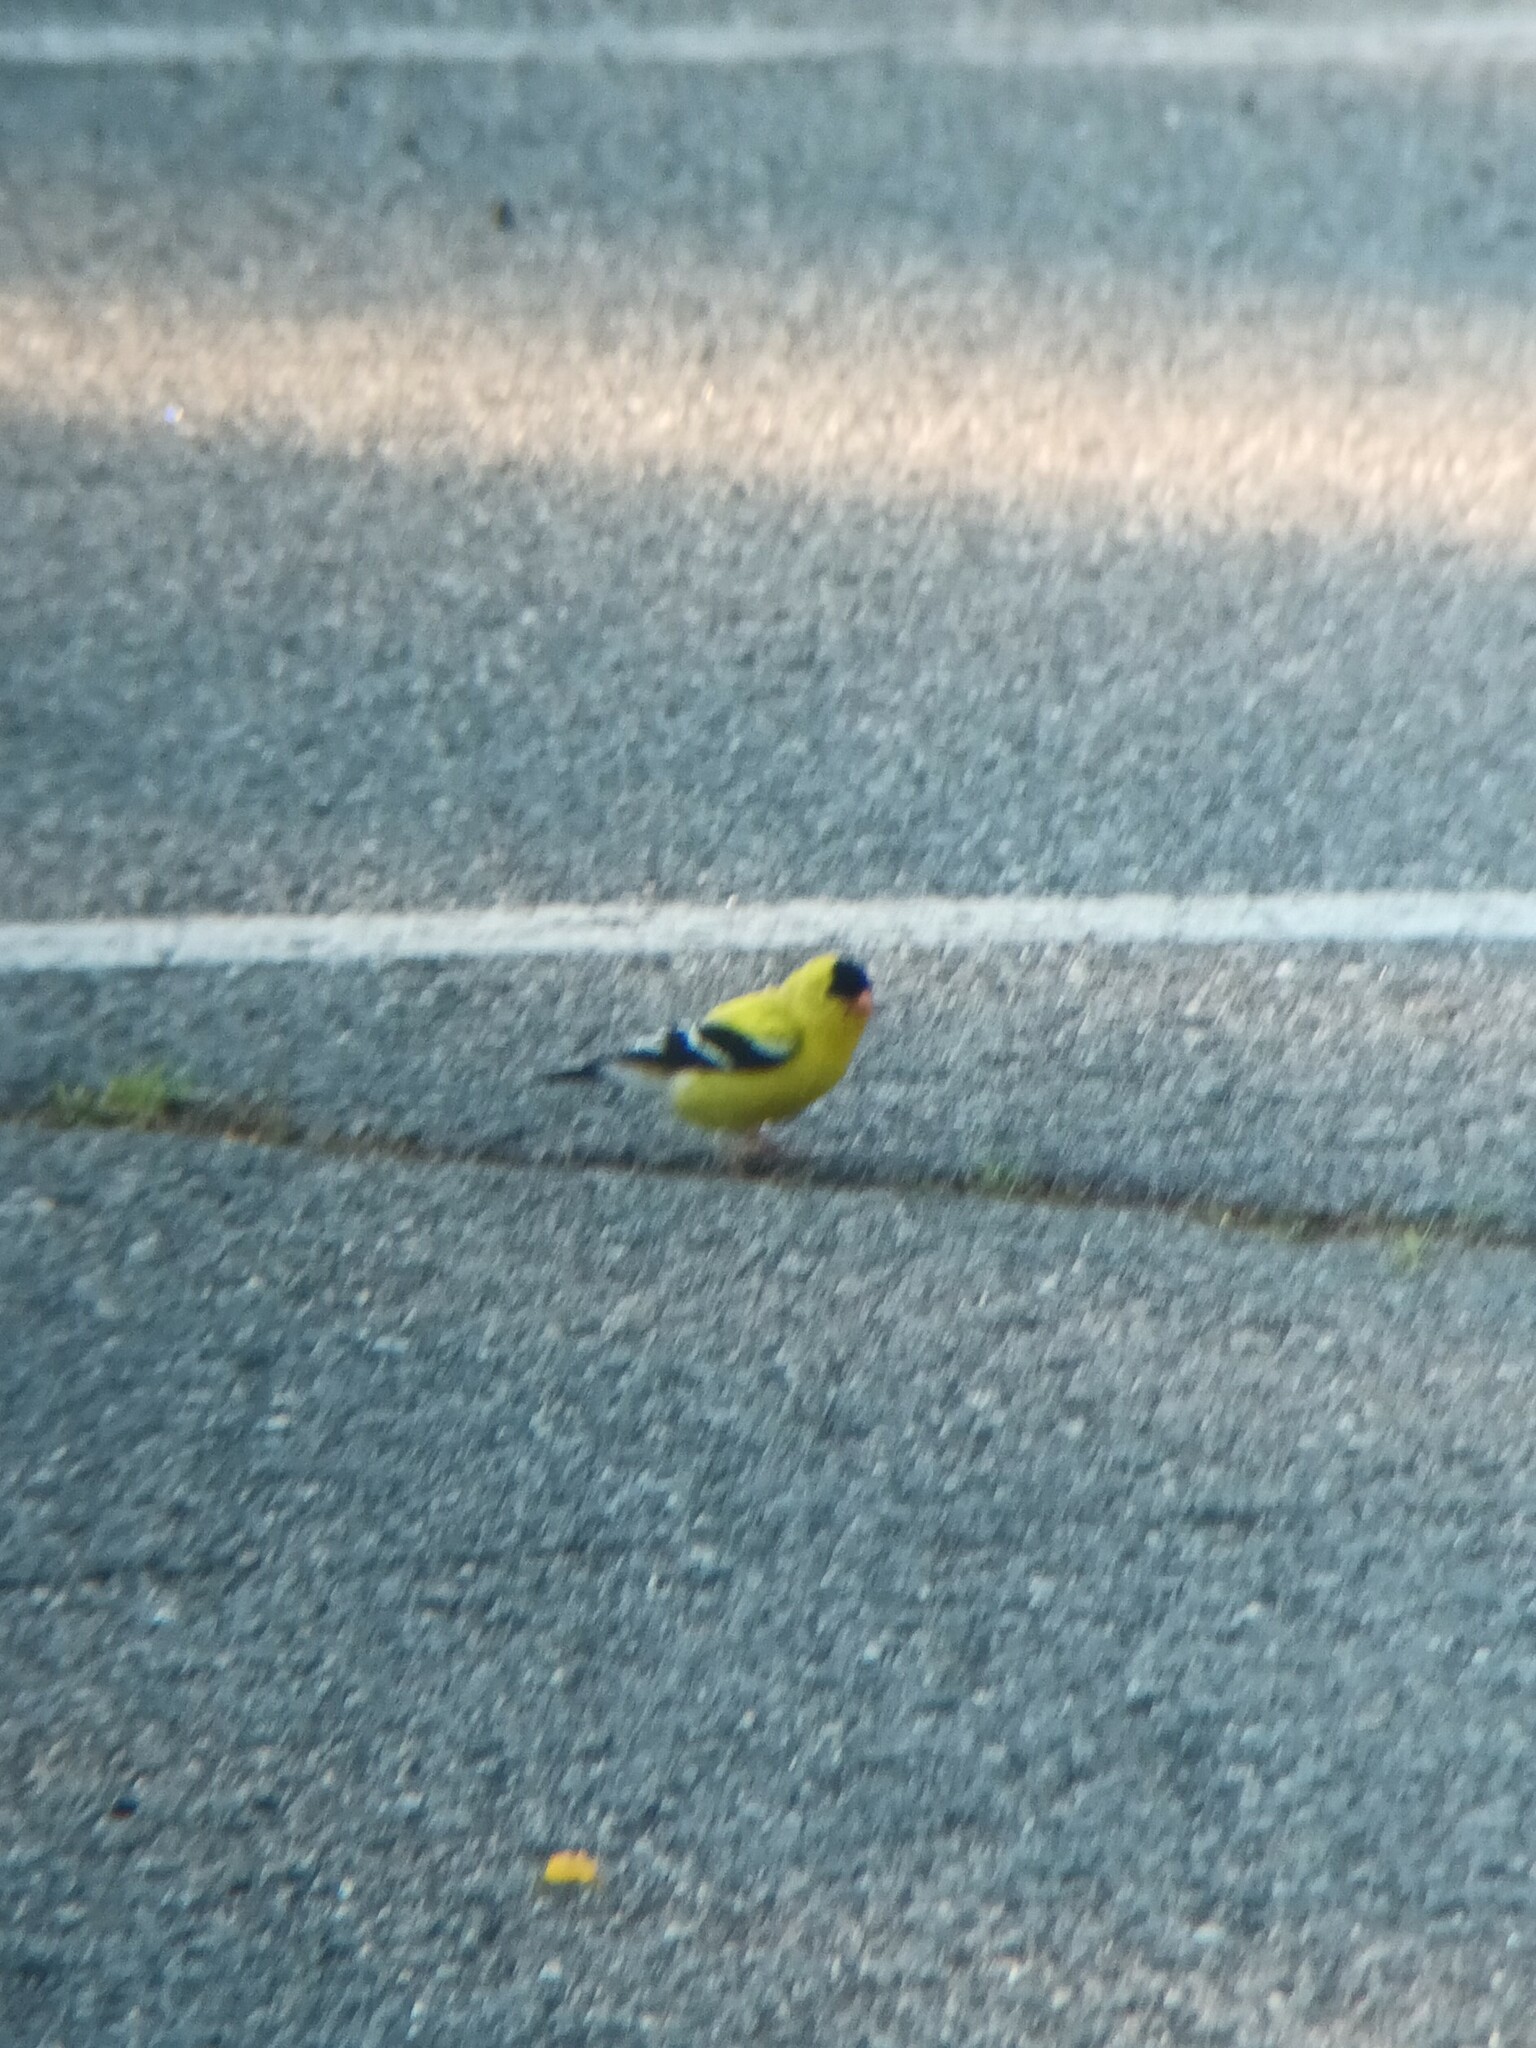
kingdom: Animalia
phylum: Chordata
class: Aves
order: Passeriformes
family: Fringillidae
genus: Spinus
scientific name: Spinus tristis
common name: American goldfinch
